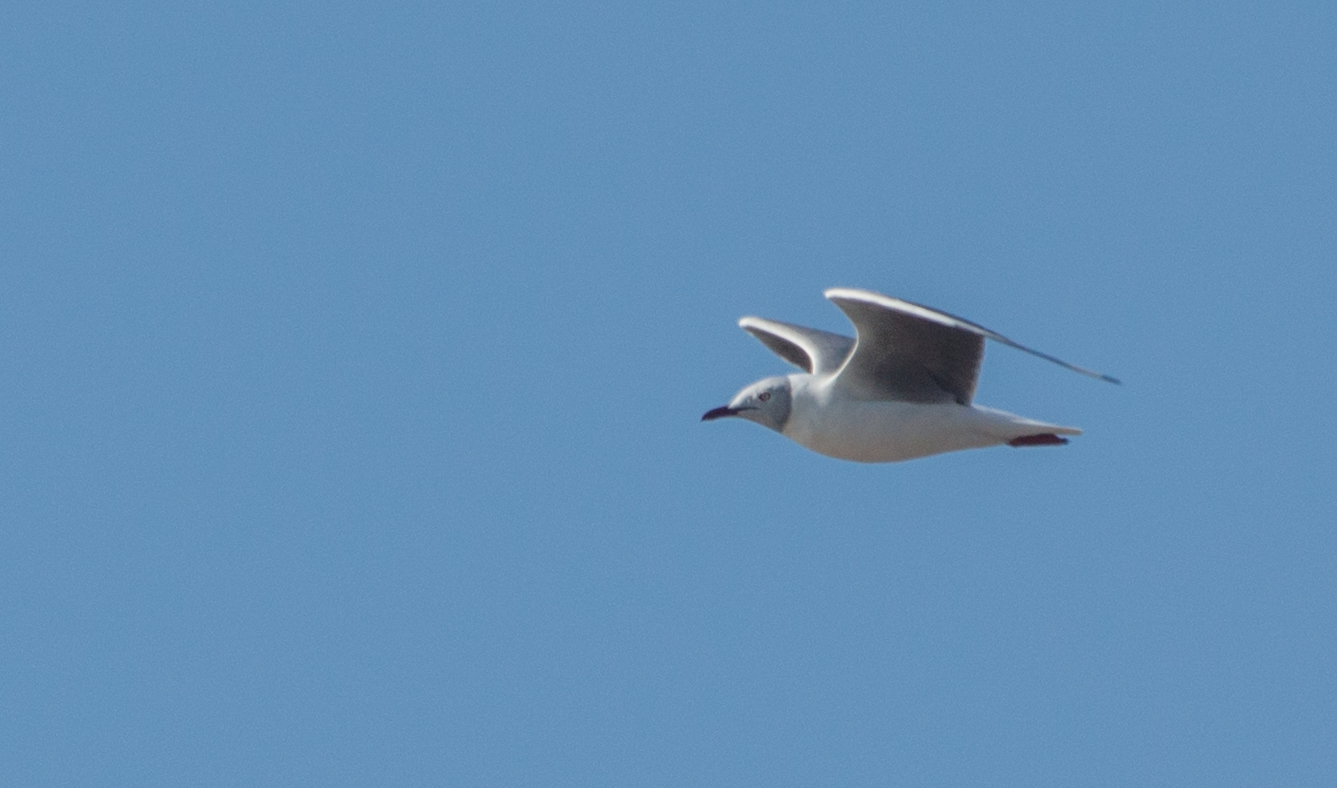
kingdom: Animalia
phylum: Chordata
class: Aves
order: Charadriiformes
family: Laridae
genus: Chroicocephalus
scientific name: Chroicocephalus cirrocephalus
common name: Grey-headed gull
